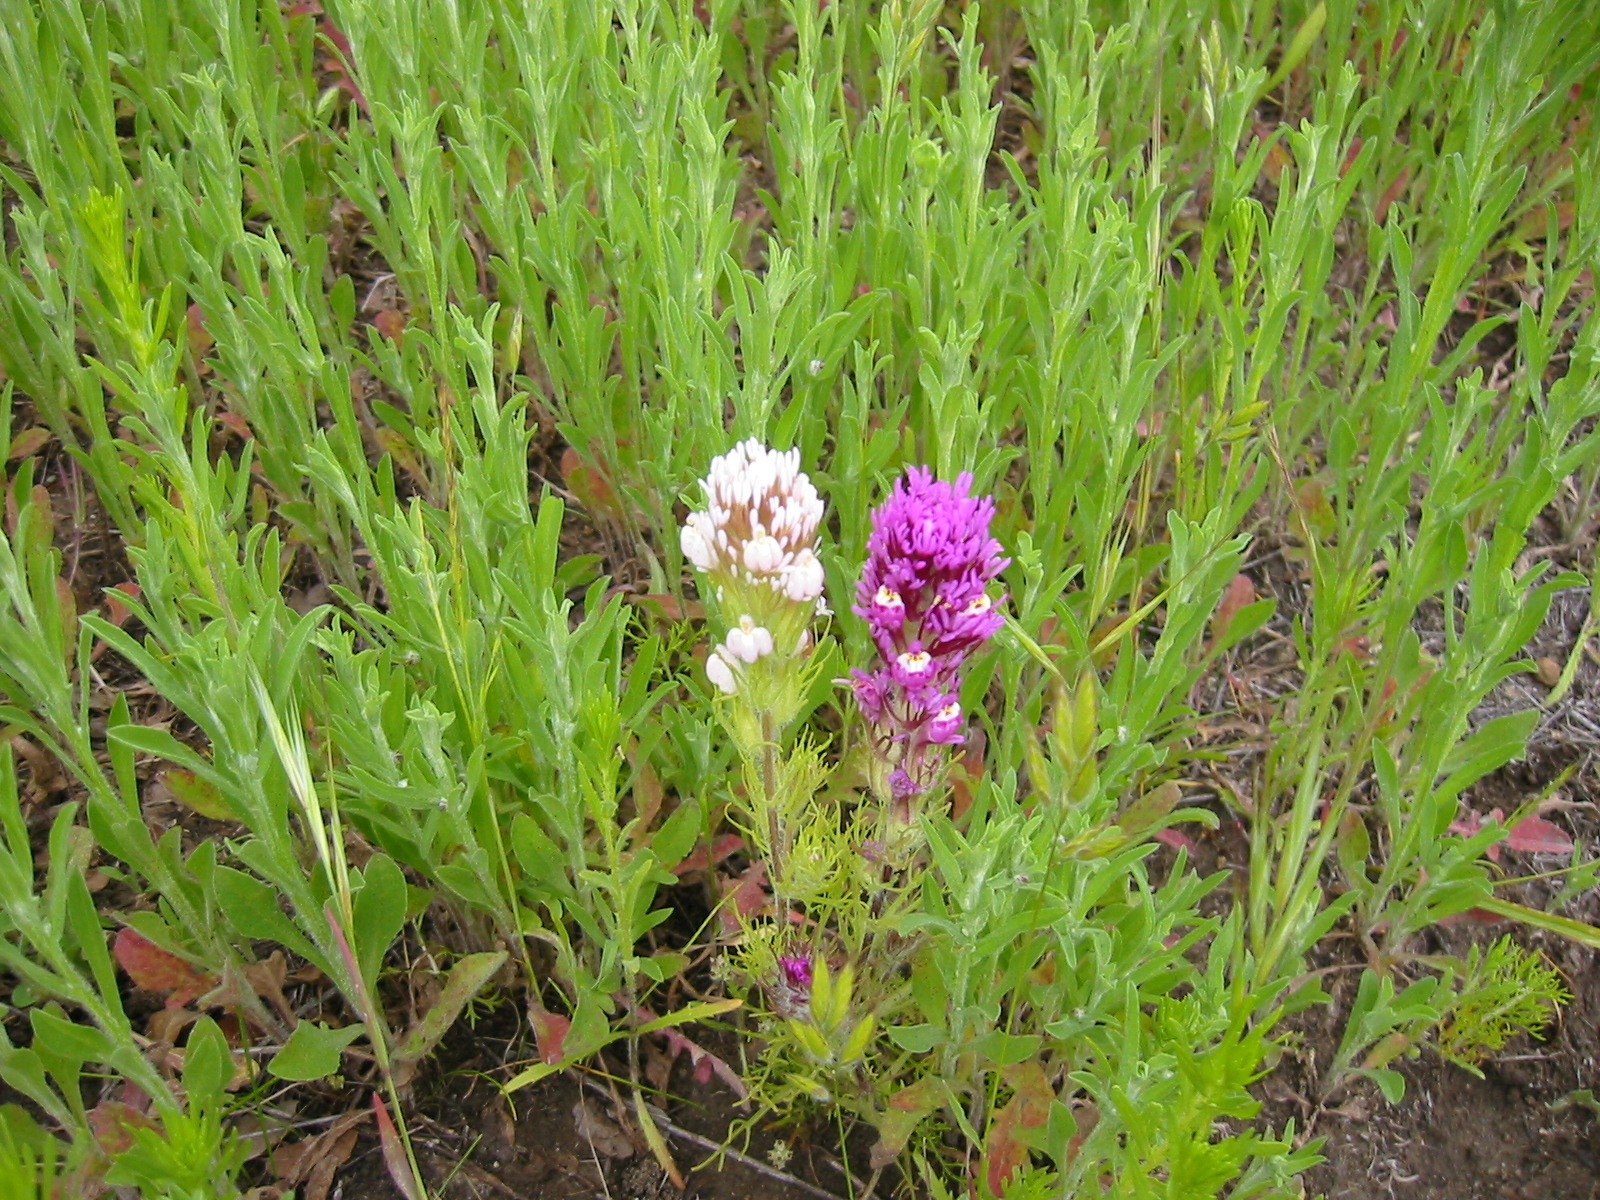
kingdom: Plantae
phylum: Tracheophyta
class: Magnoliopsida
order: Lamiales
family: Orobanchaceae
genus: Castilleja
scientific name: Castilleja exserta
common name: Purple owl-clover
